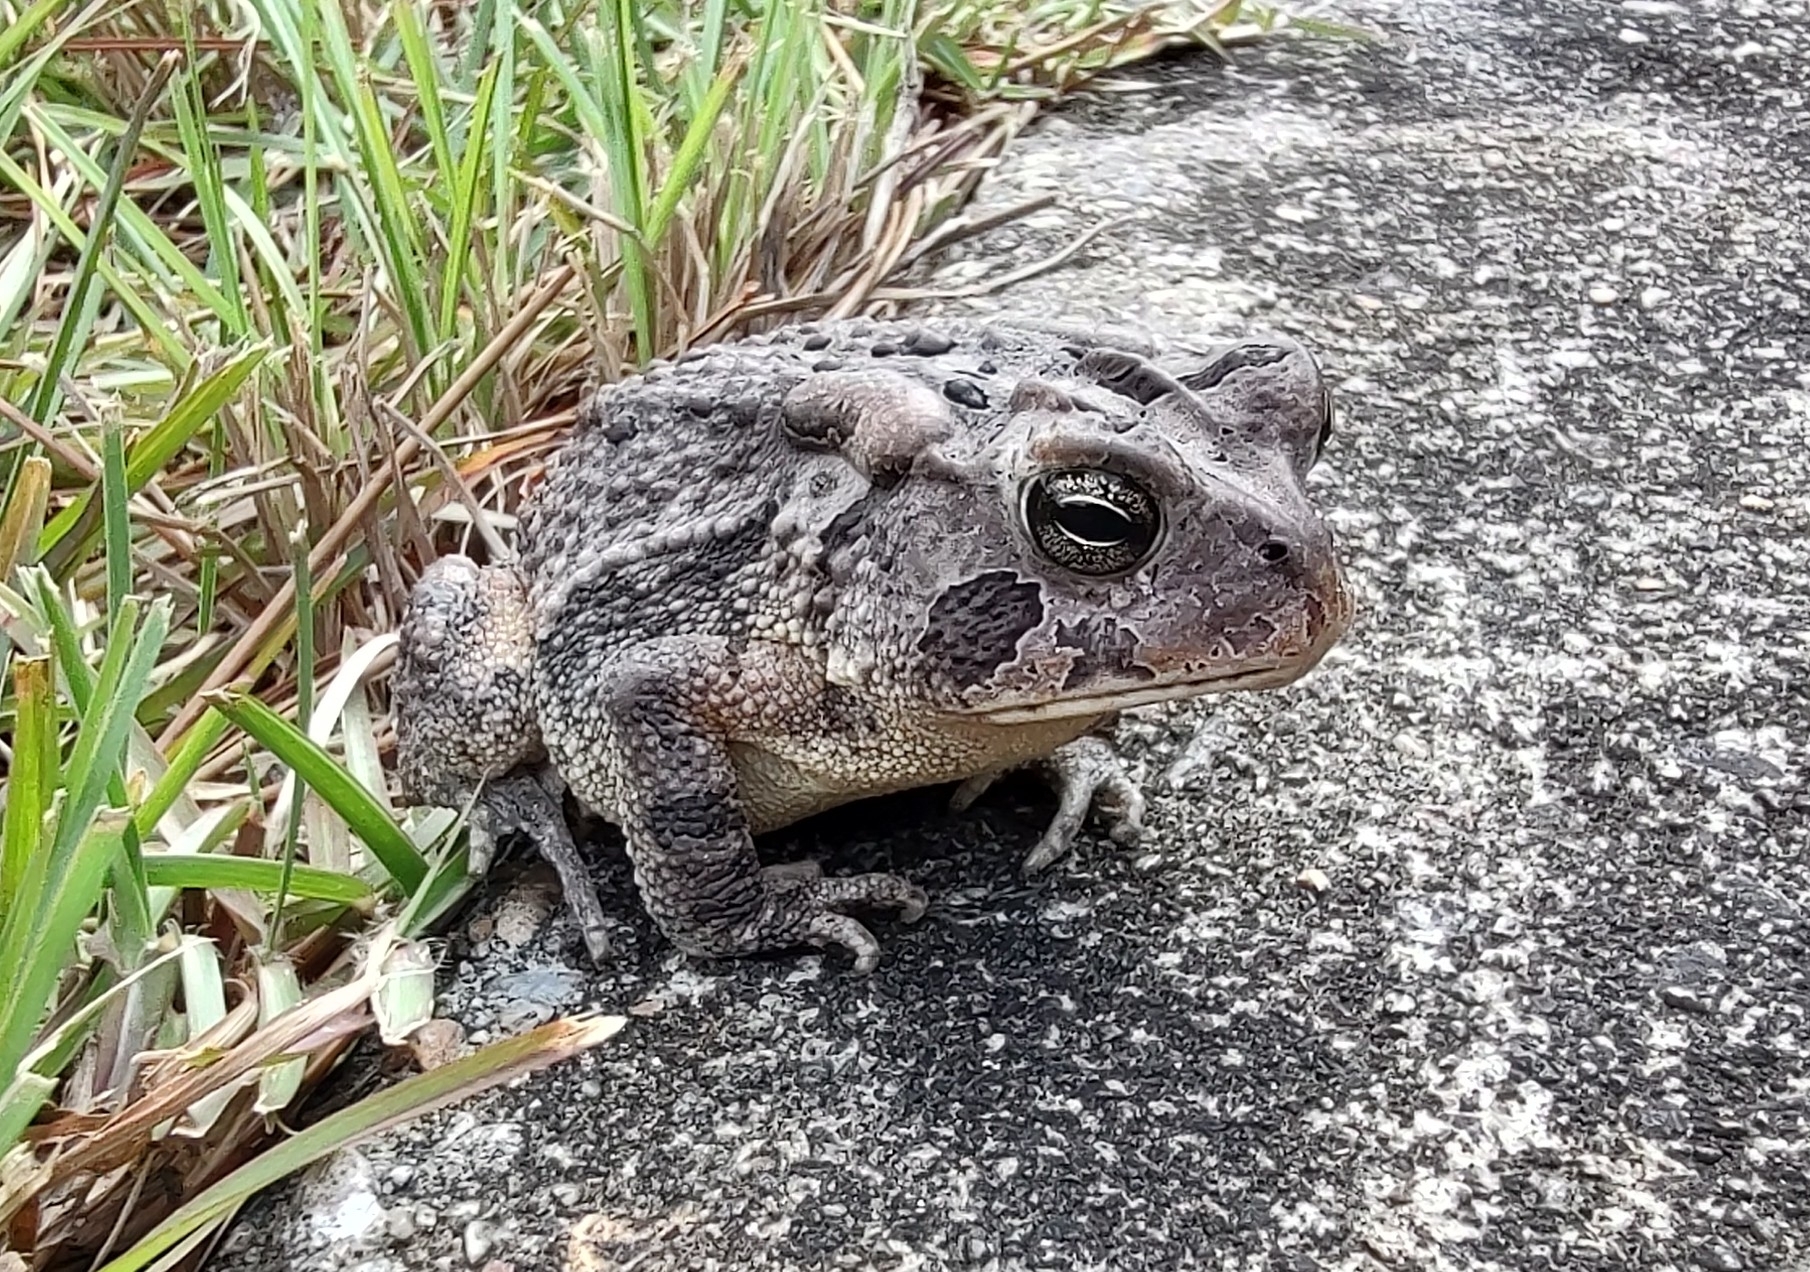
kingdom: Animalia
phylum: Chordata
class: Amphibia
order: Anura
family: Bufonidae
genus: Anaxyrus
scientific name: Anaxyrus terrestris
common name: Southern toad
